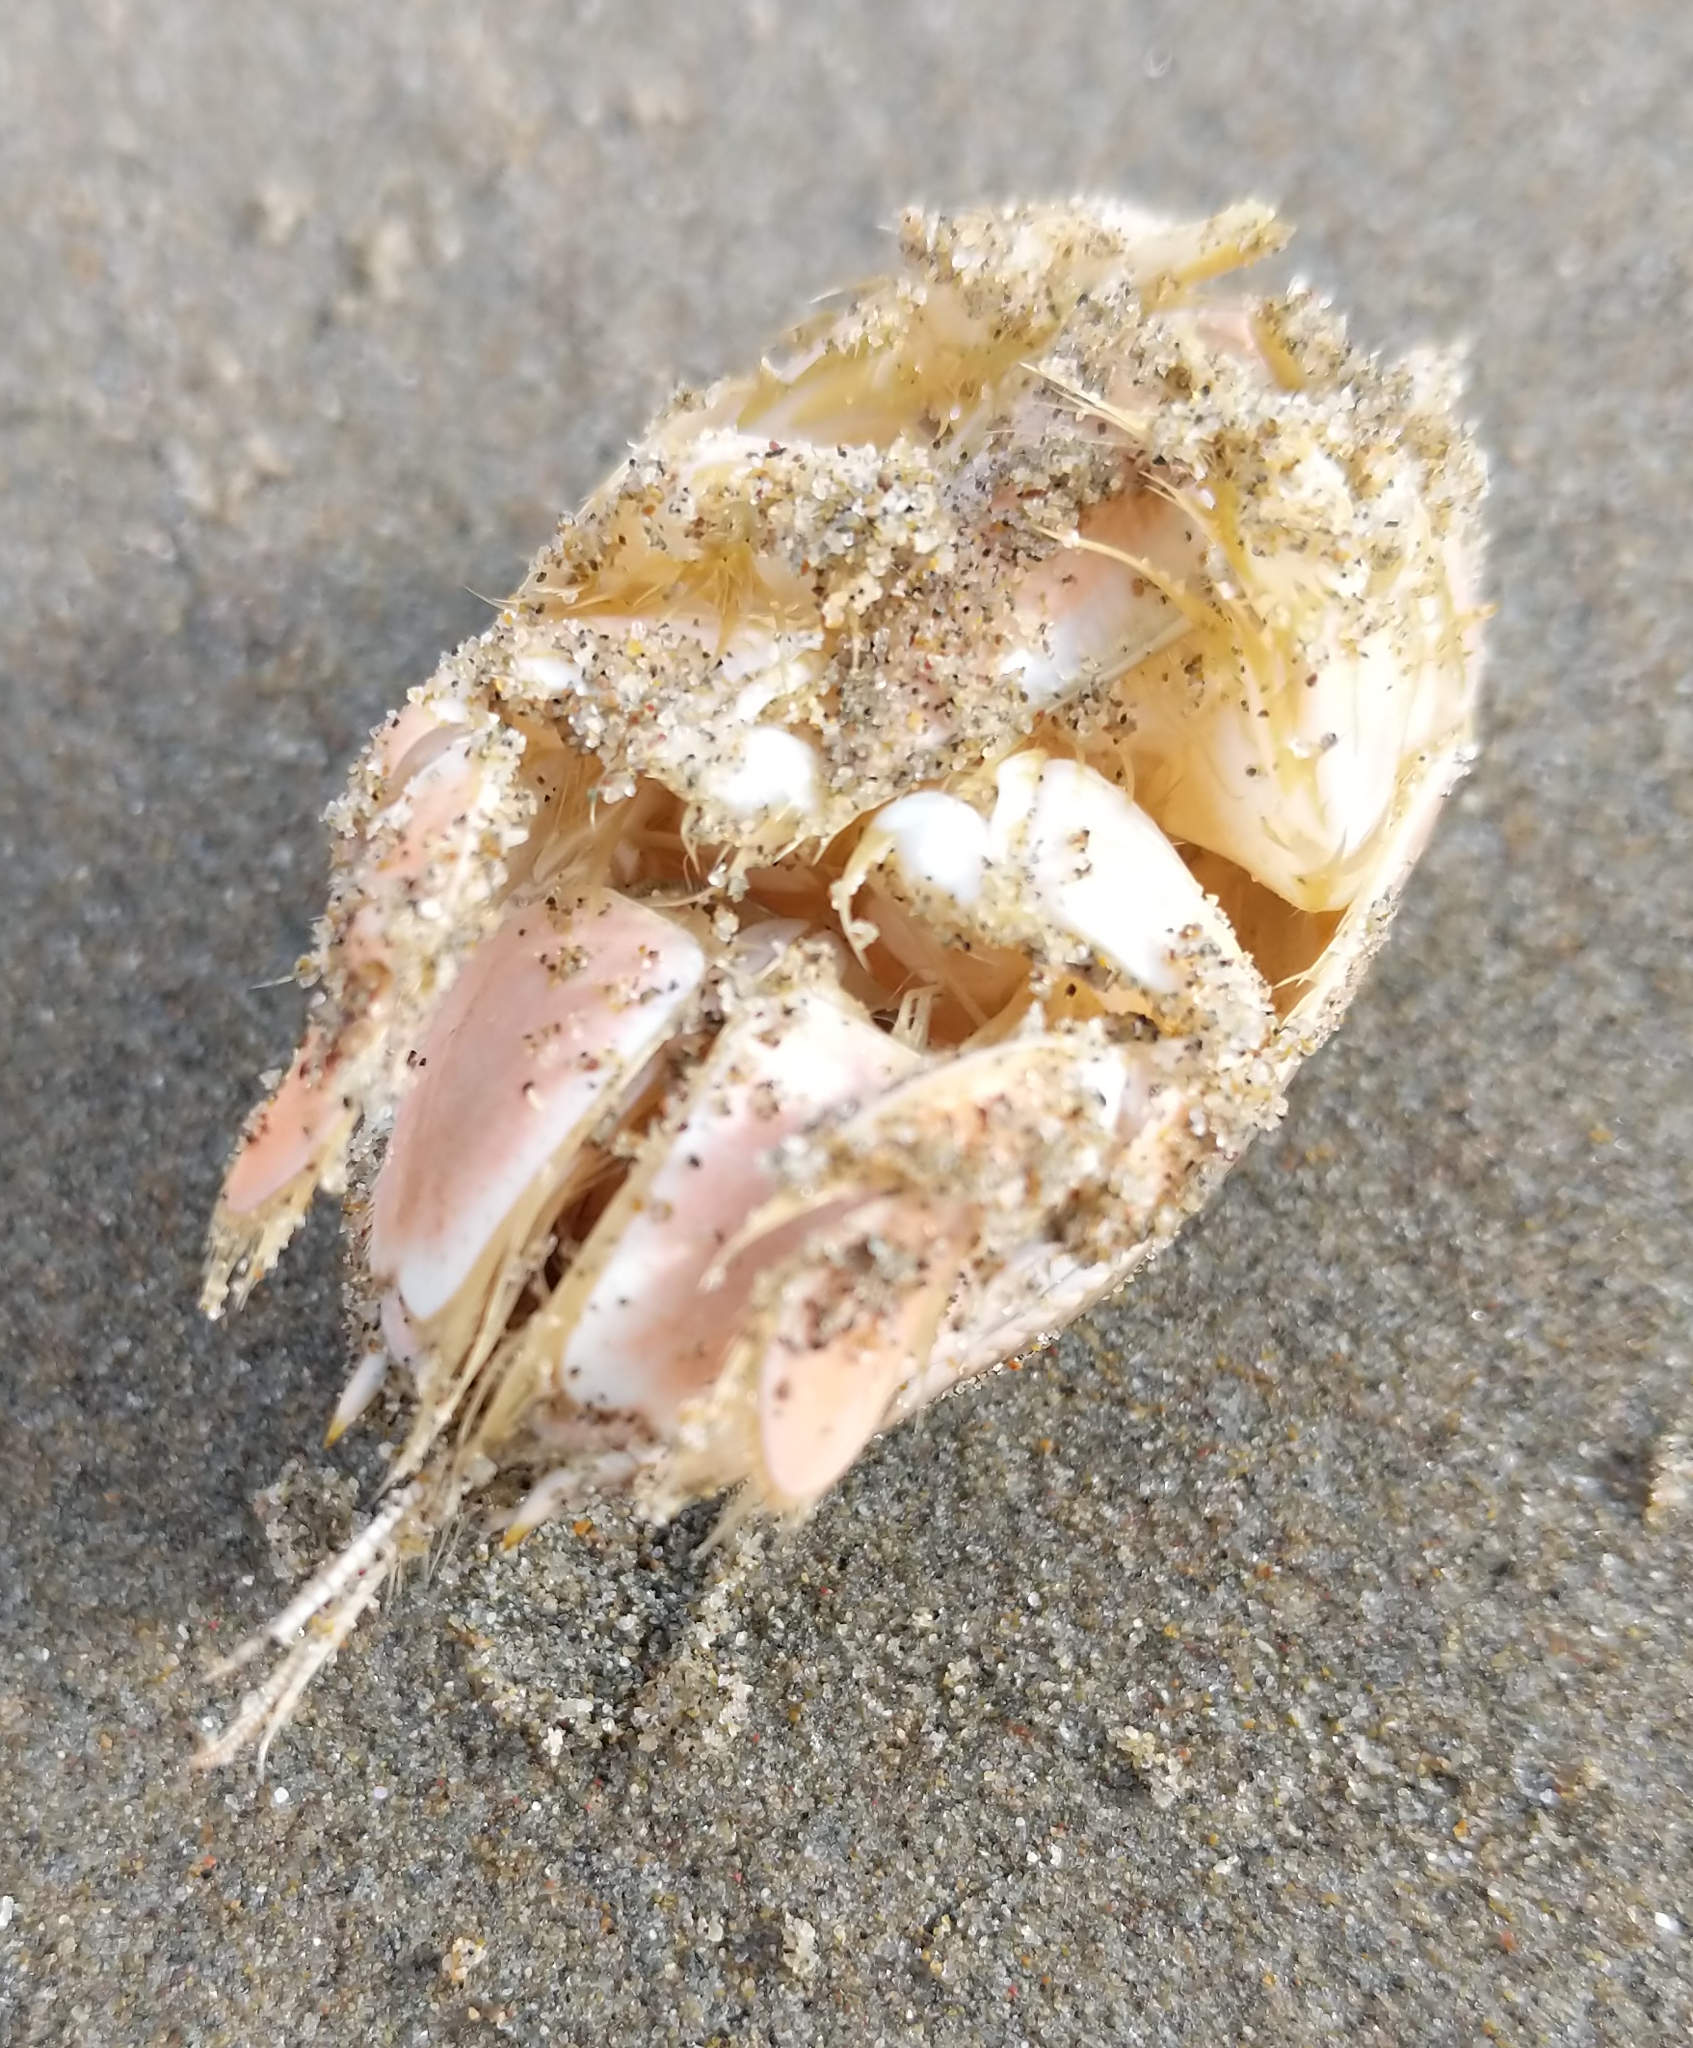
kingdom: Animalia
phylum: Arthropoda
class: Malacostraca
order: Decapoda
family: Hippidae
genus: Emerita
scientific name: Emerita analoga
